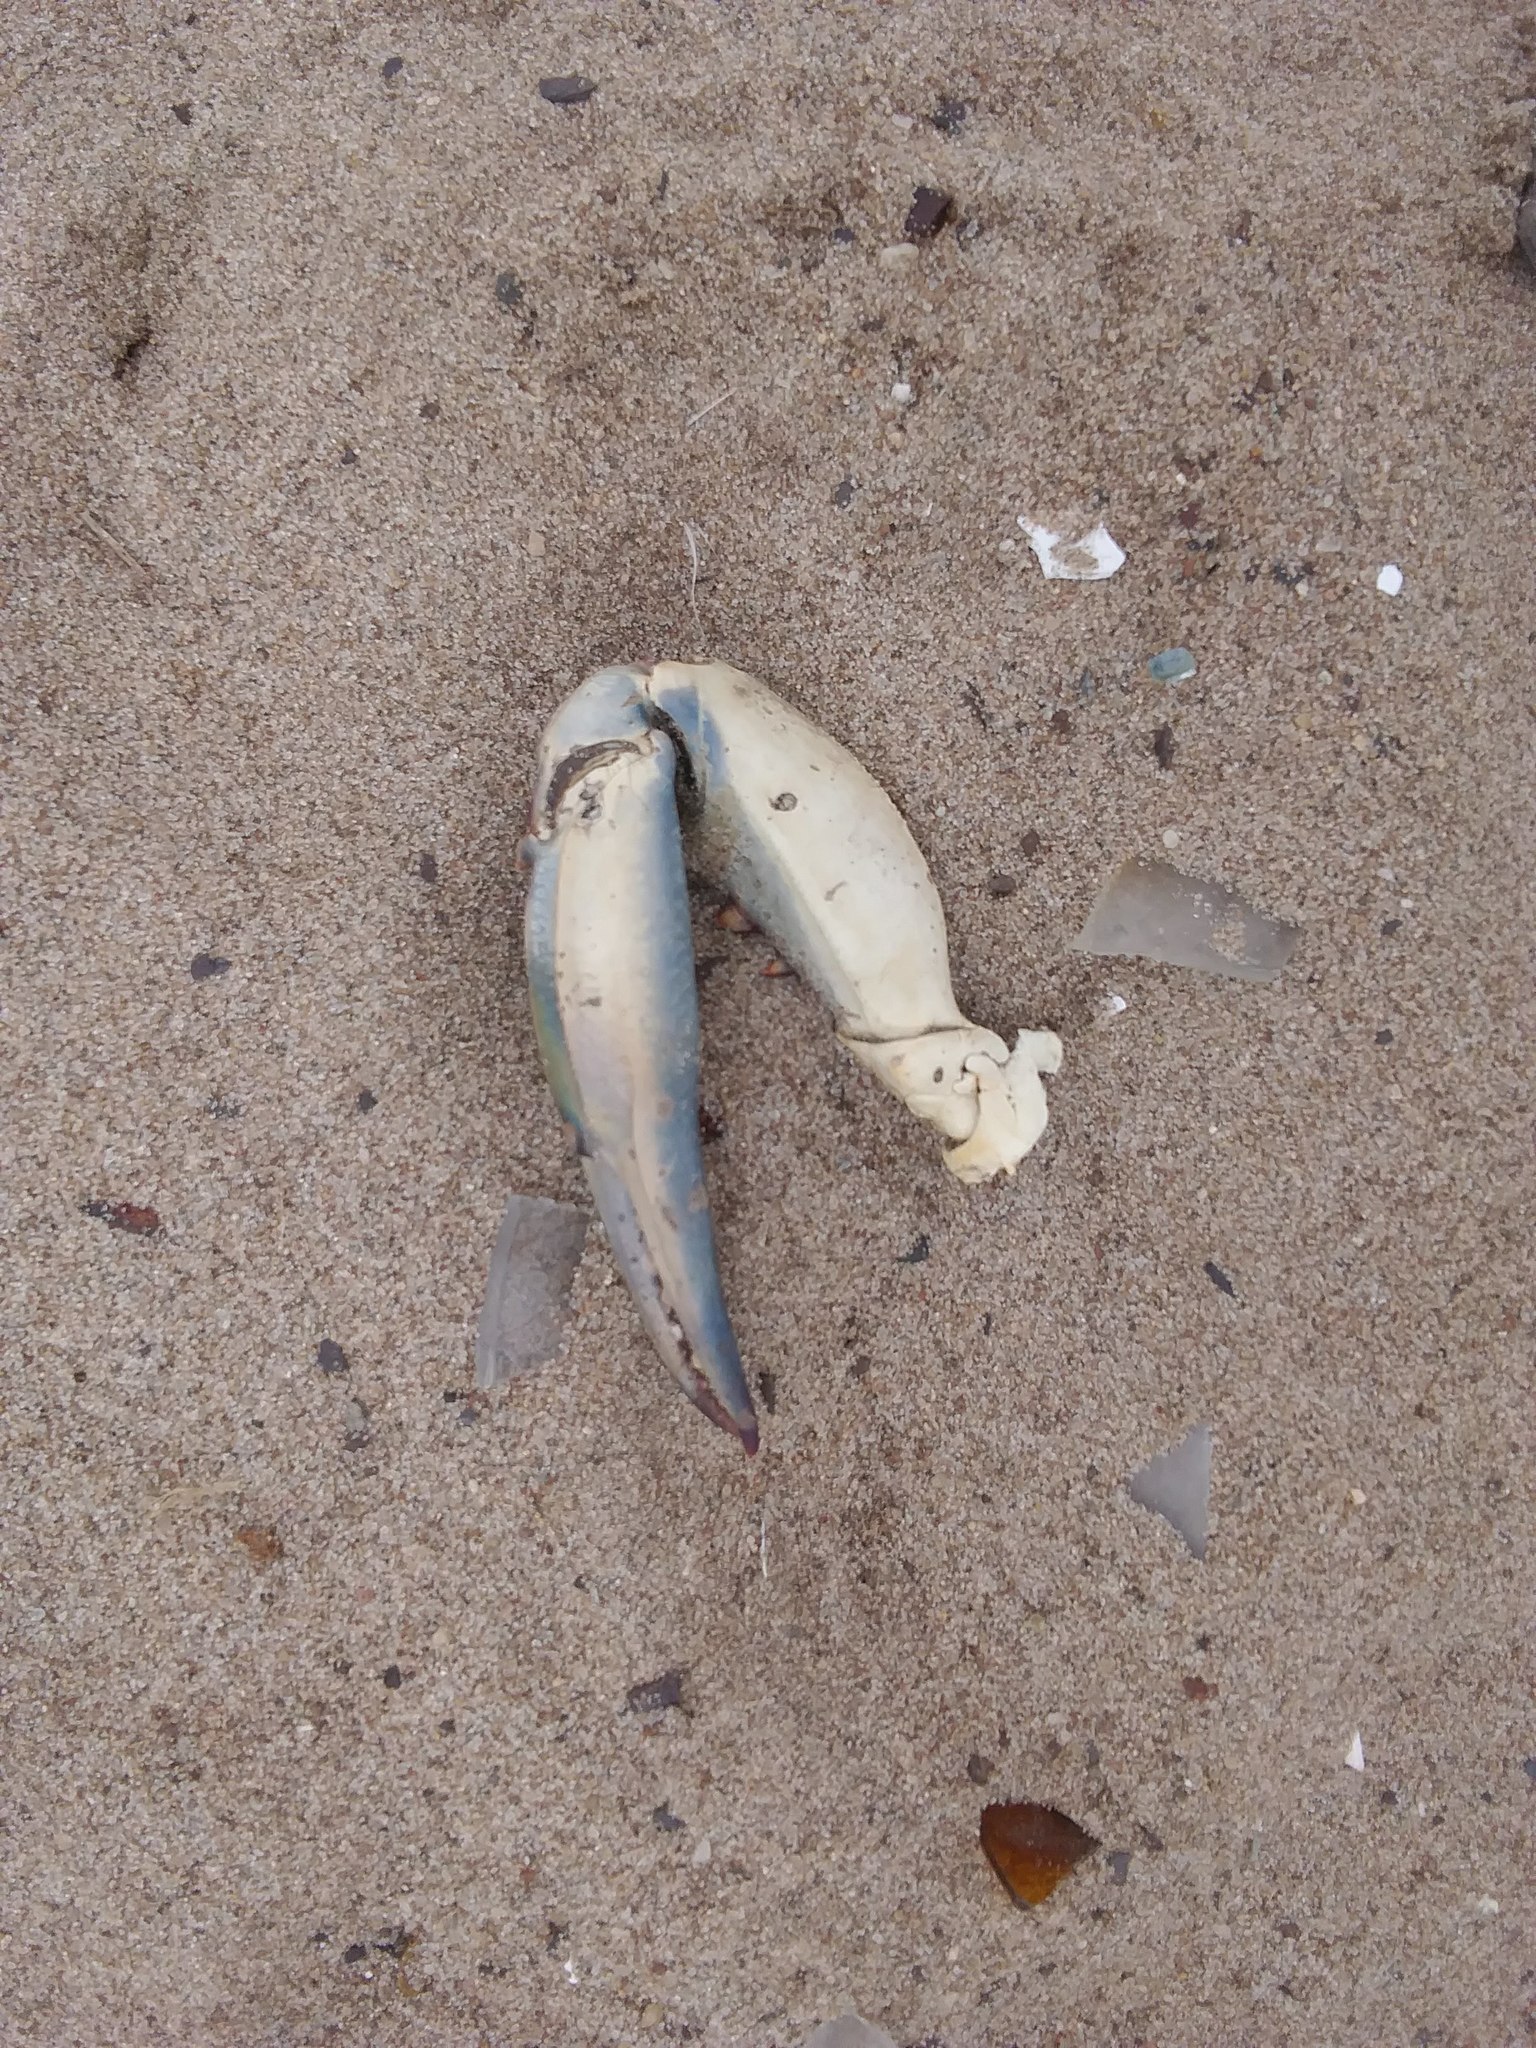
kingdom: Animalia
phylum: Arthropoda
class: Malacostraca
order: Decapoda
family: Portunidae
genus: Callinectes
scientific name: Callinectes sapidus
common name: Blue crab
